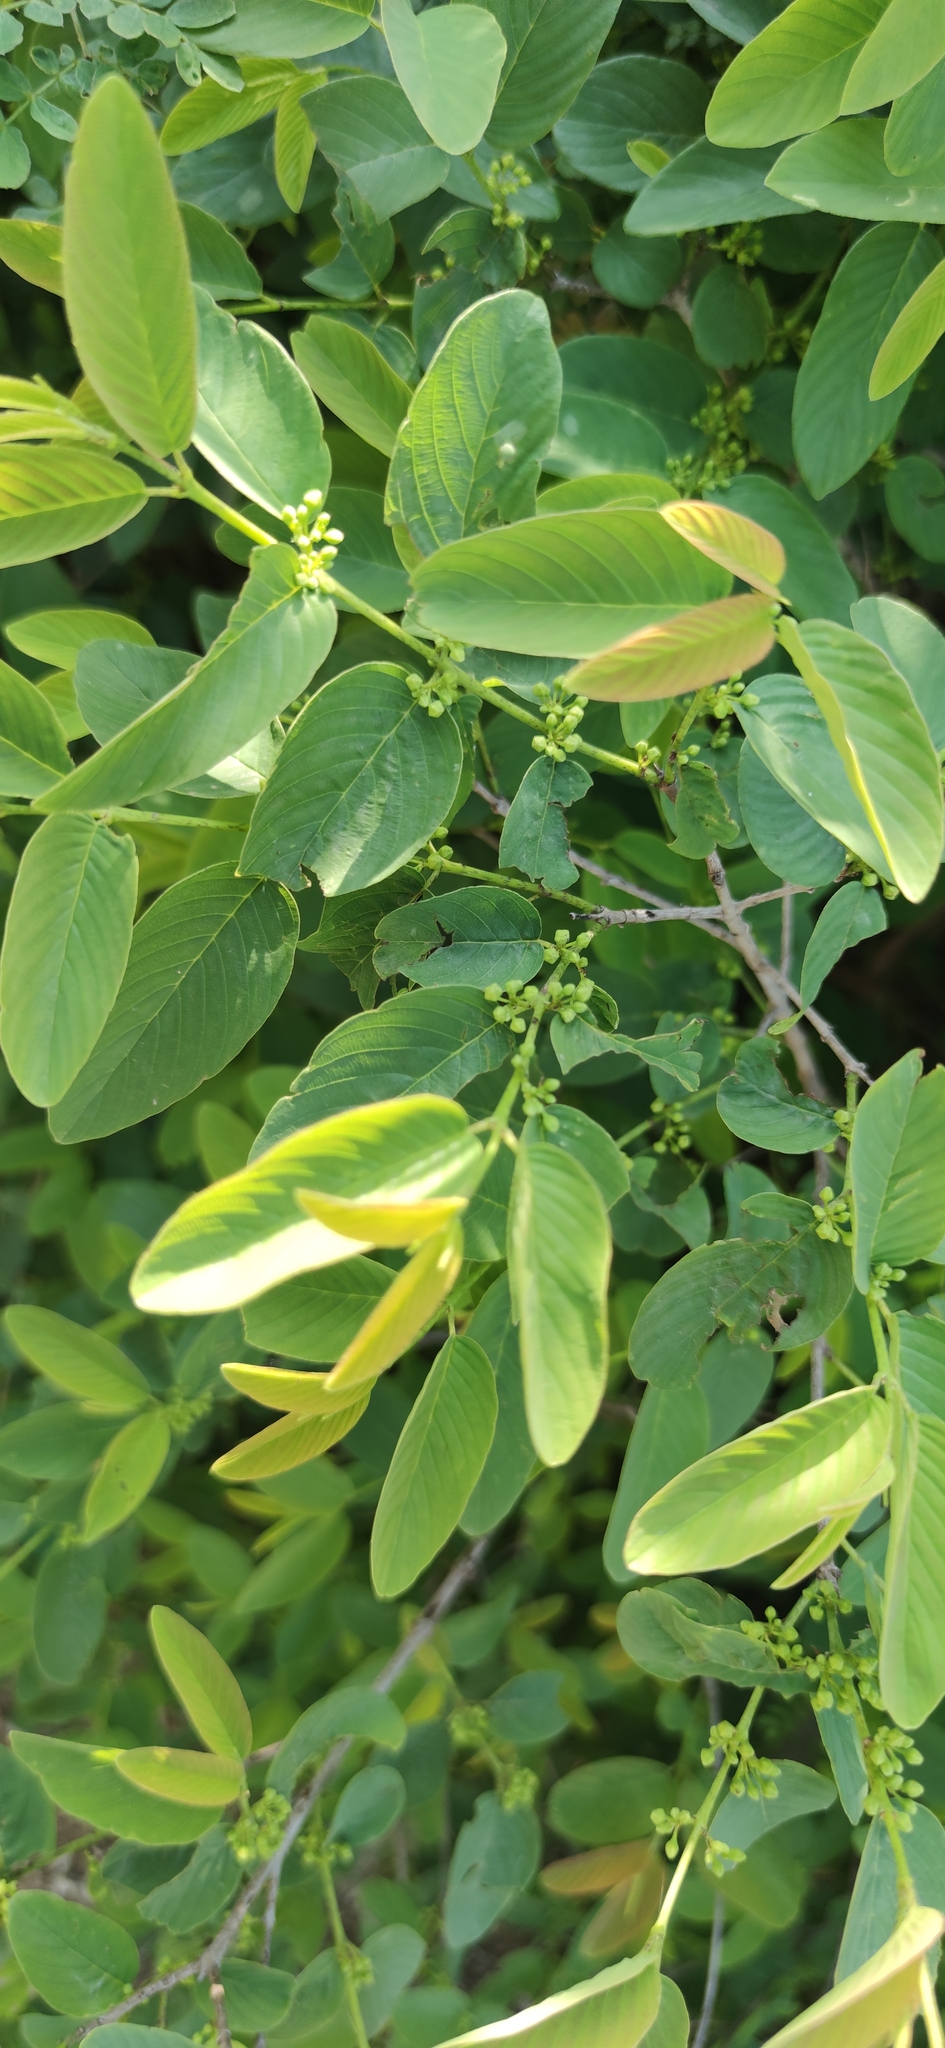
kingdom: Plantae
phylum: Tracheophyta
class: Magnoliopsida
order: Rosales
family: Rhamnaceae
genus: Karwinskia
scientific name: Karwinskia humboldtiana
